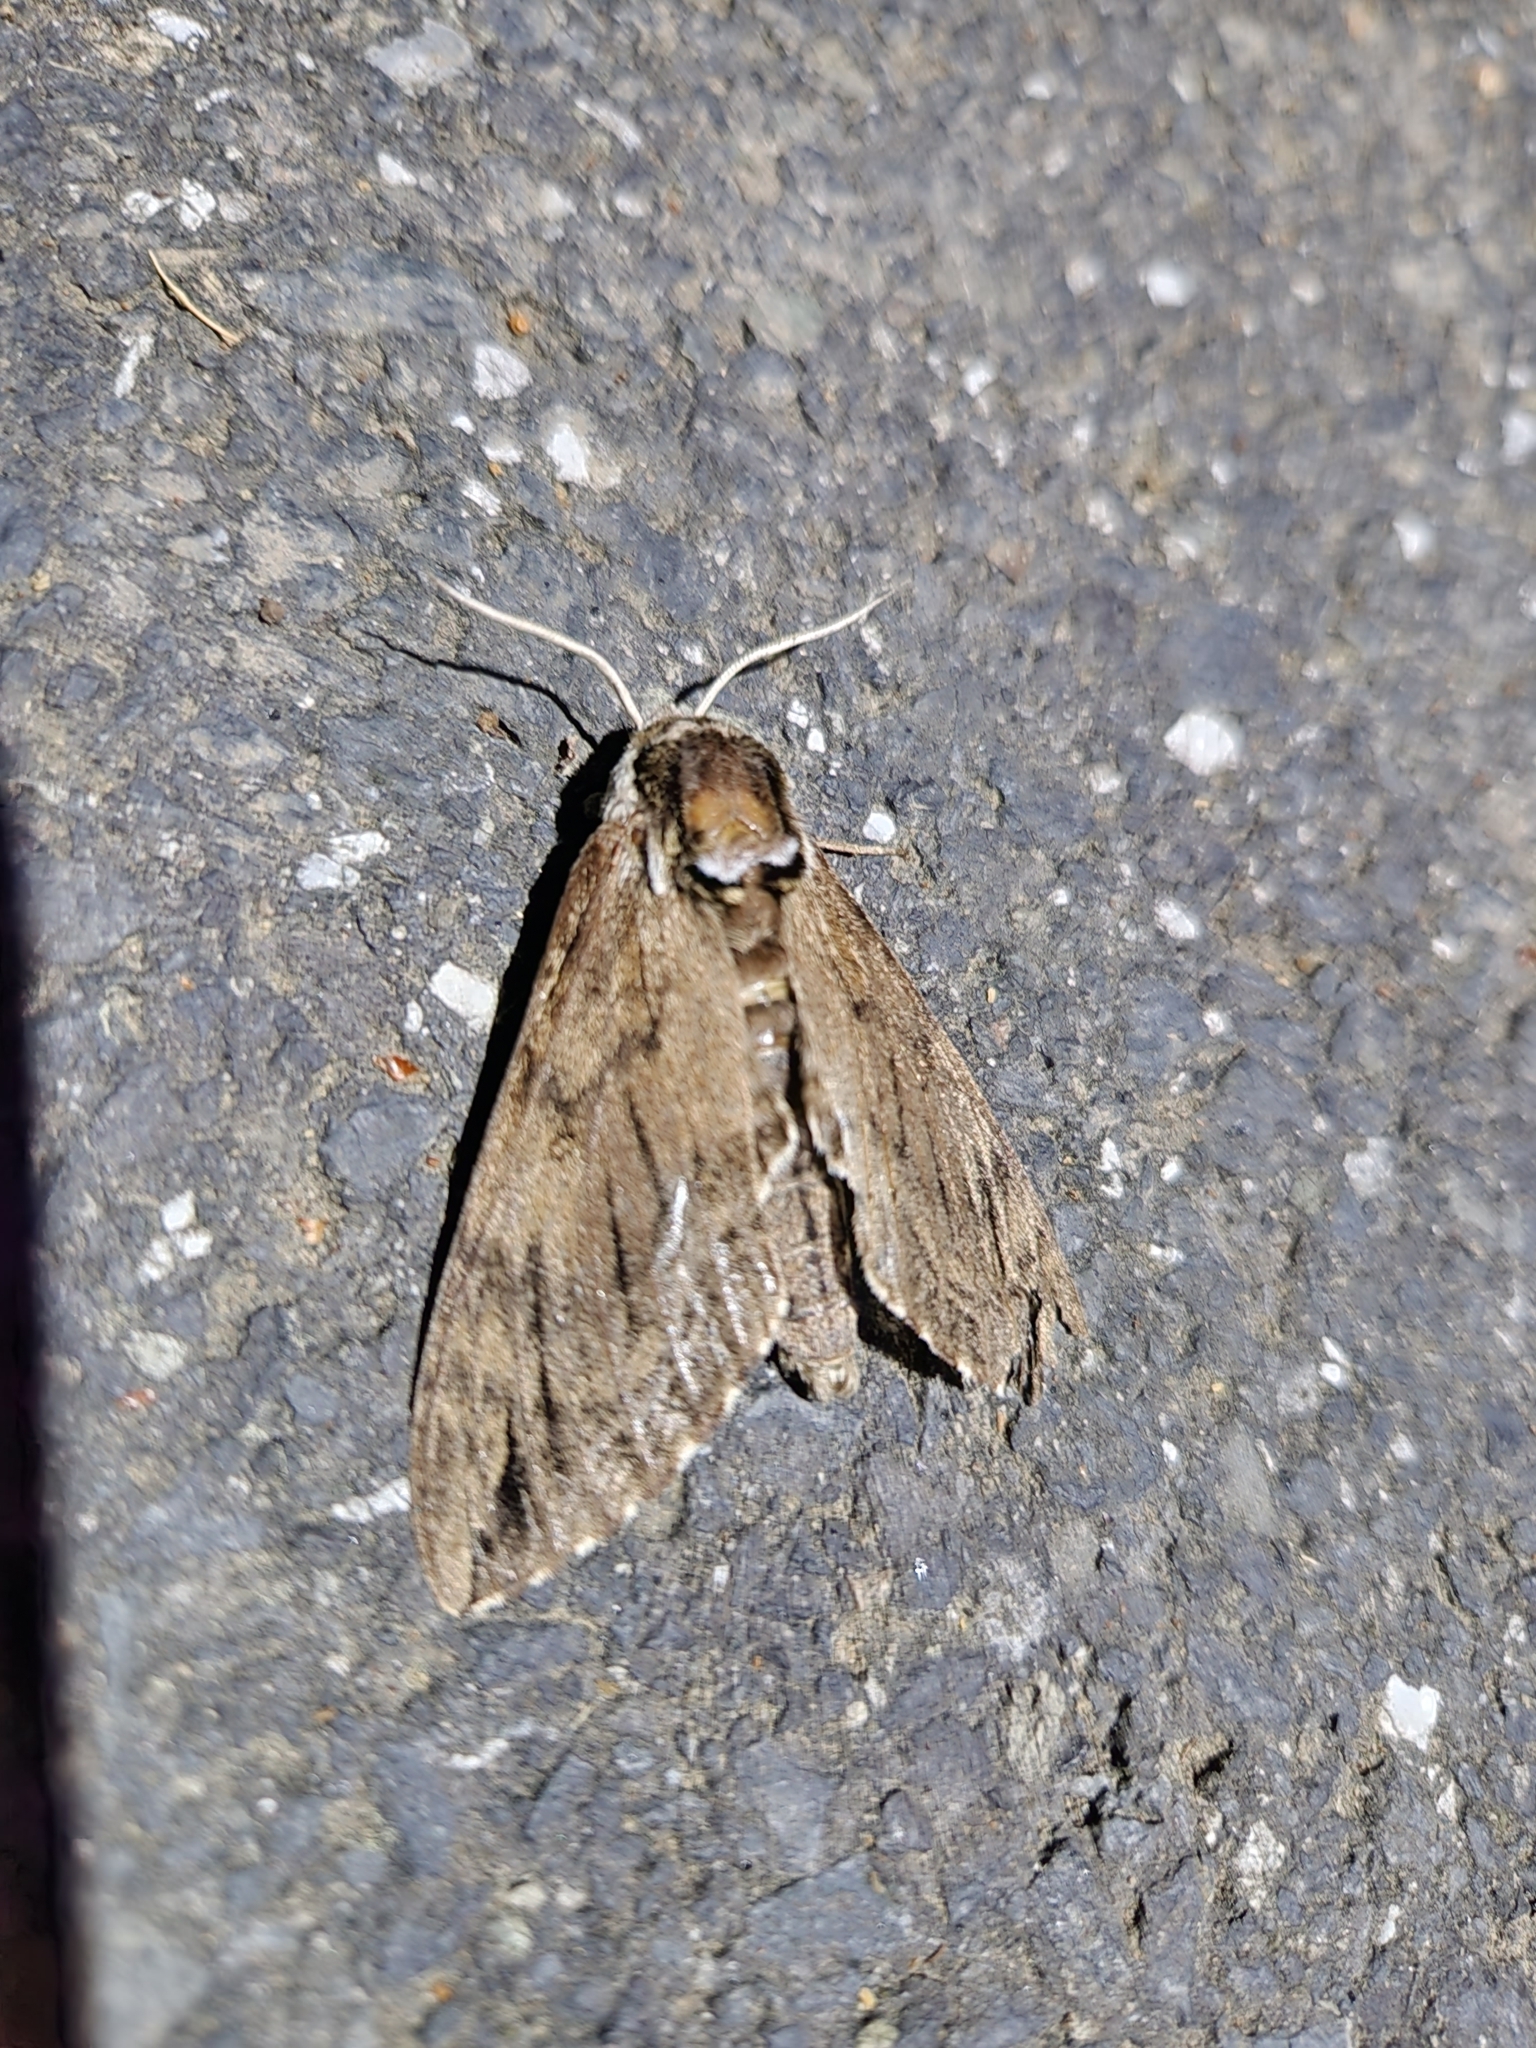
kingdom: Animalia
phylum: Arthropoda
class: Insecta
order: Lepidoptera
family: Sphingidae
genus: Ceratomia
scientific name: Ceratomia catalpae
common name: Catalpa hornworm
